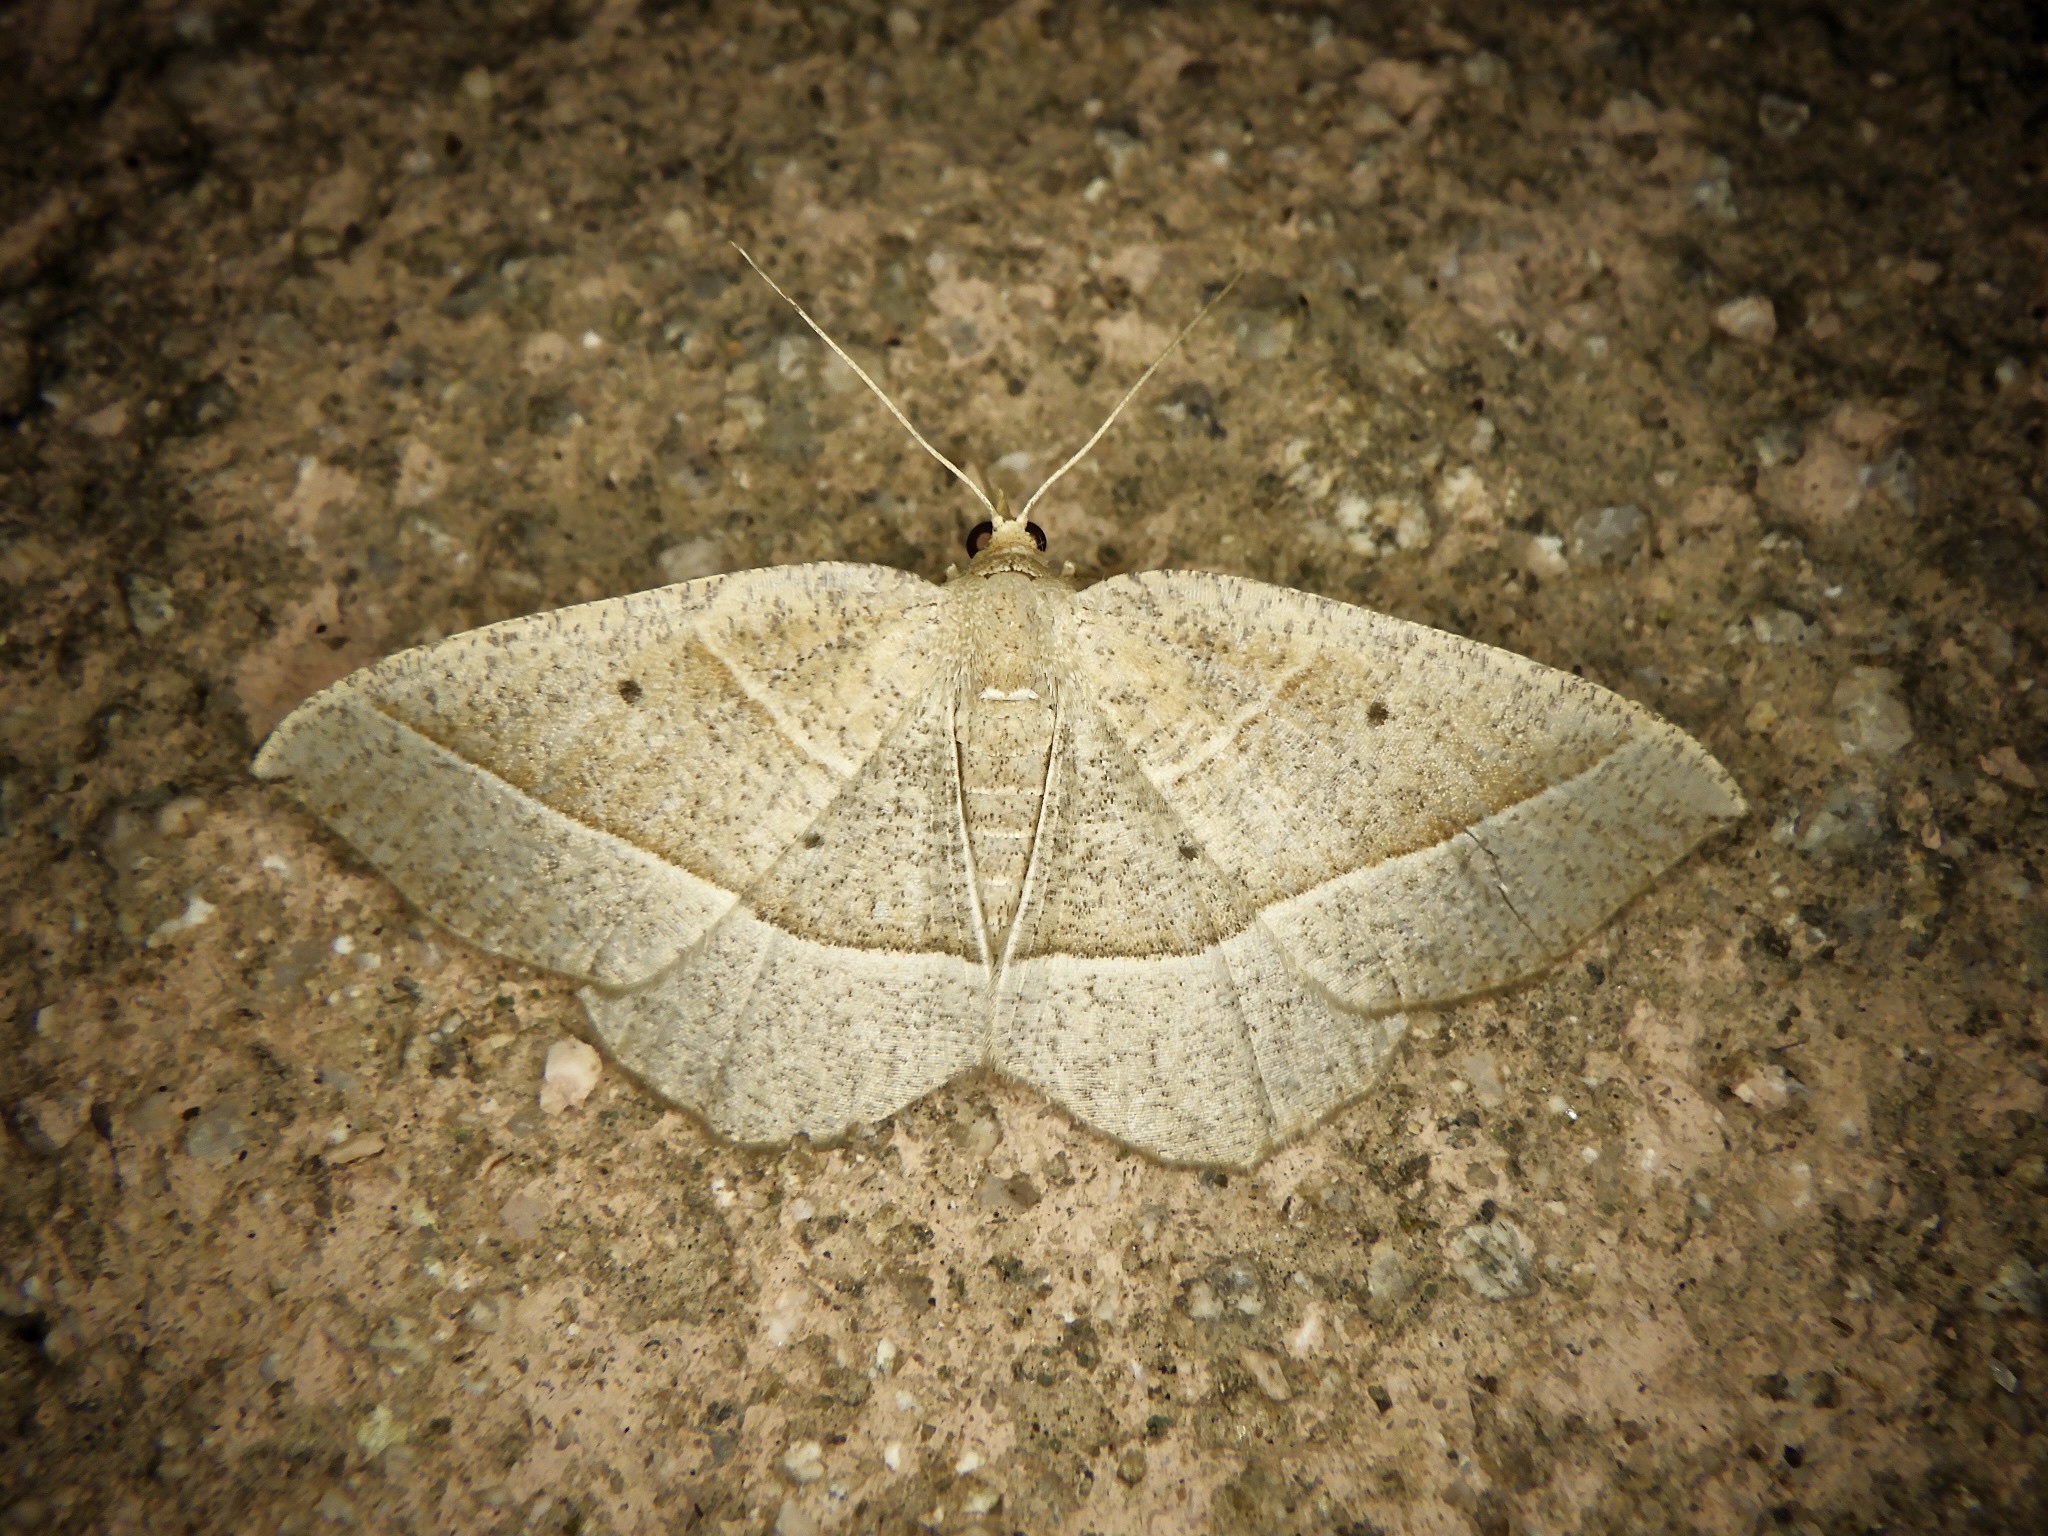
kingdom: Animalia
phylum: Arthropoda
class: Insecta
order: Lepidoptera
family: Geometridae
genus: Rhynchobapta
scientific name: Rhynchobapta cervinaria
